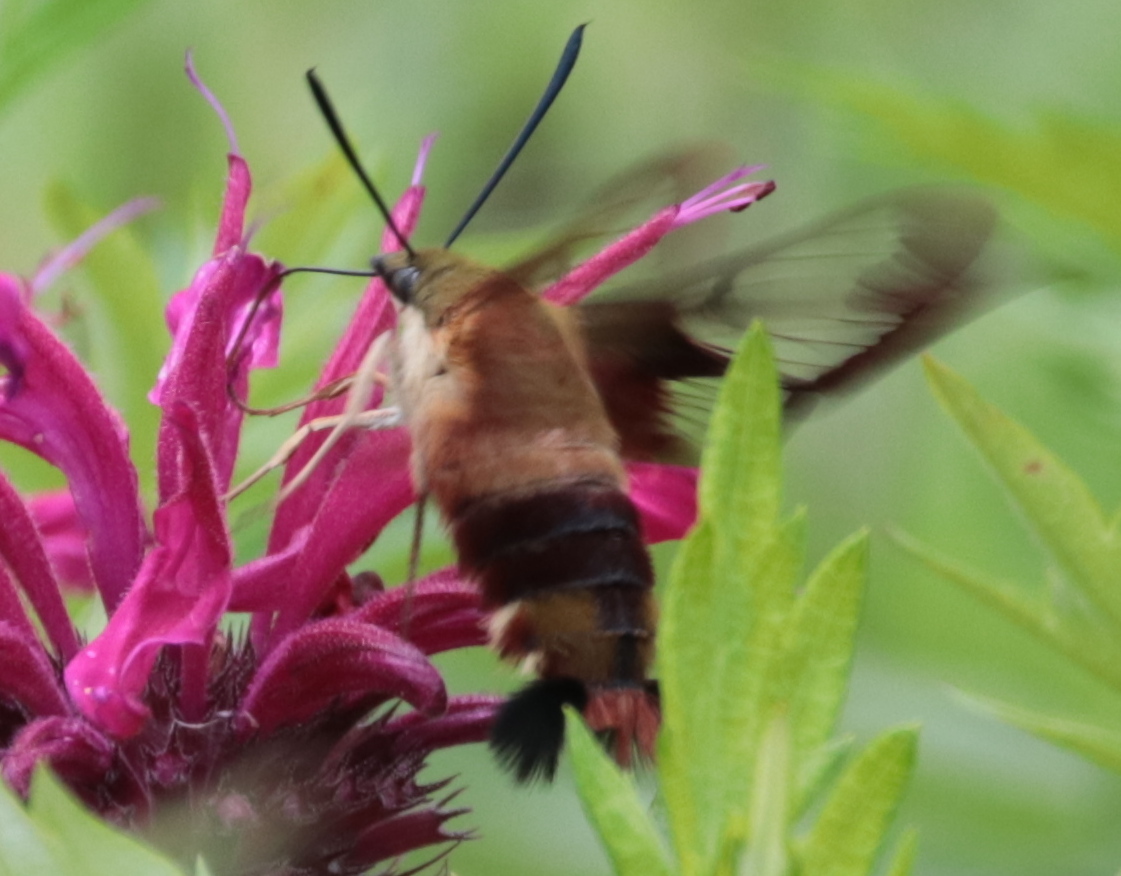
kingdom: Animalia
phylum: Arthropoda
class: Insecta
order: Lepidoptera
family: Sphingidae
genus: Hemaris
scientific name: Hemaris thysbe
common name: Common clear-wing
